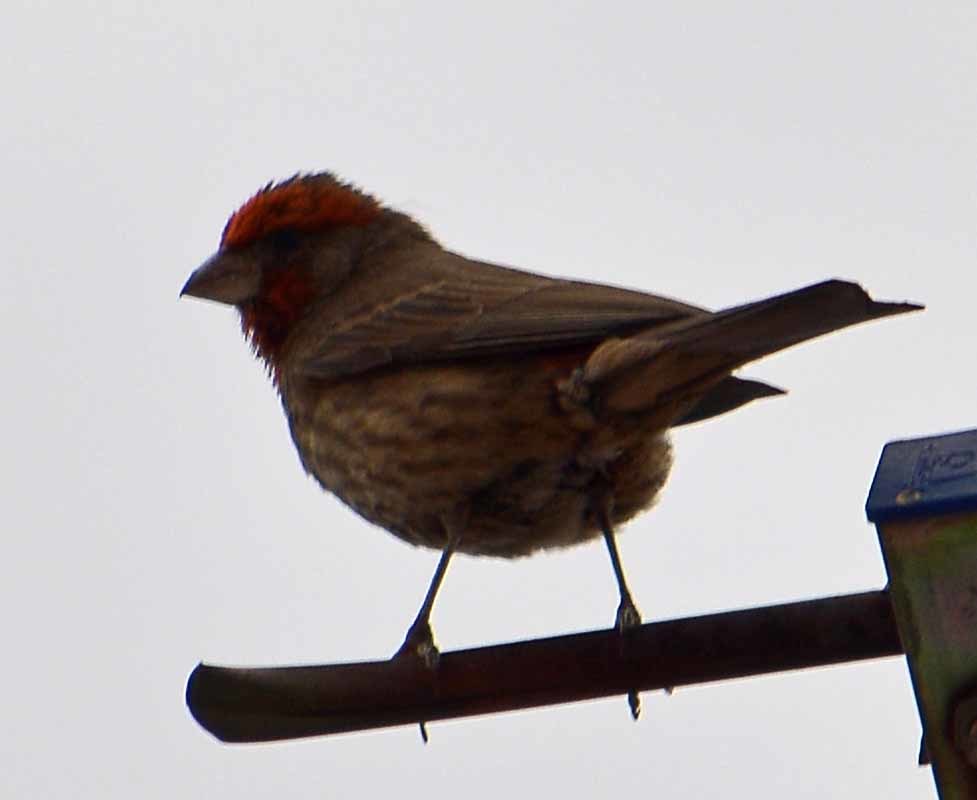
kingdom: Animalia
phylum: Chordata
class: Aves
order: Passeriformes
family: Fringillidae
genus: Haemorhous
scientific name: Haemorhous mexicanus
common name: House finch
